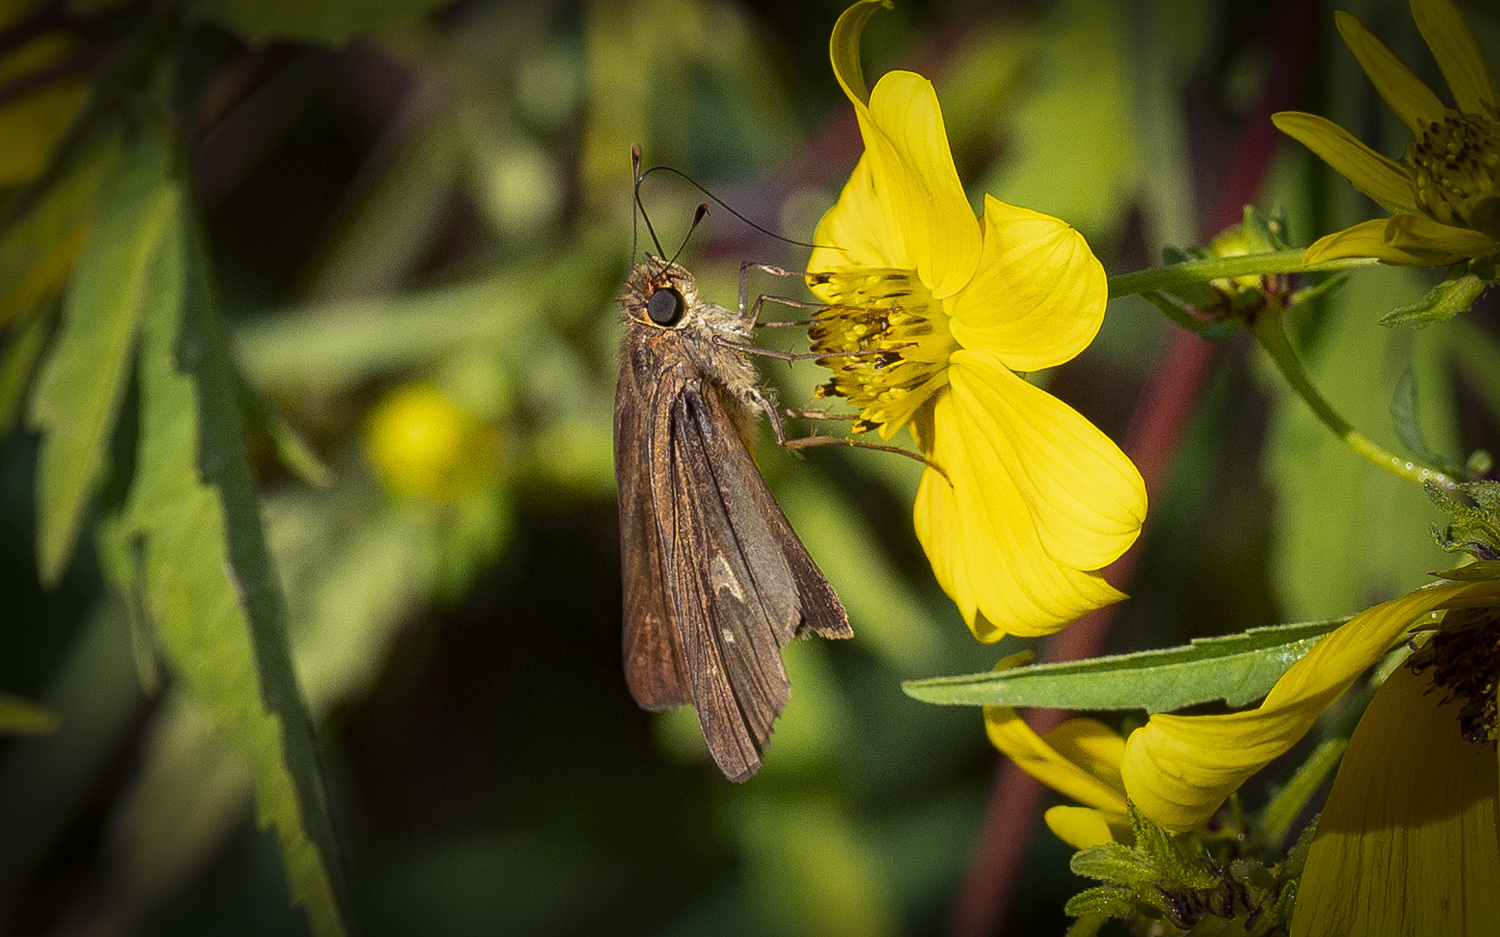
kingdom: Animalia
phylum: Arthropoda
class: Insecta
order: Lepidoptera
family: Hesperiidae
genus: Panoquina
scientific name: Panoquina ocola
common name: Ocola skipper
